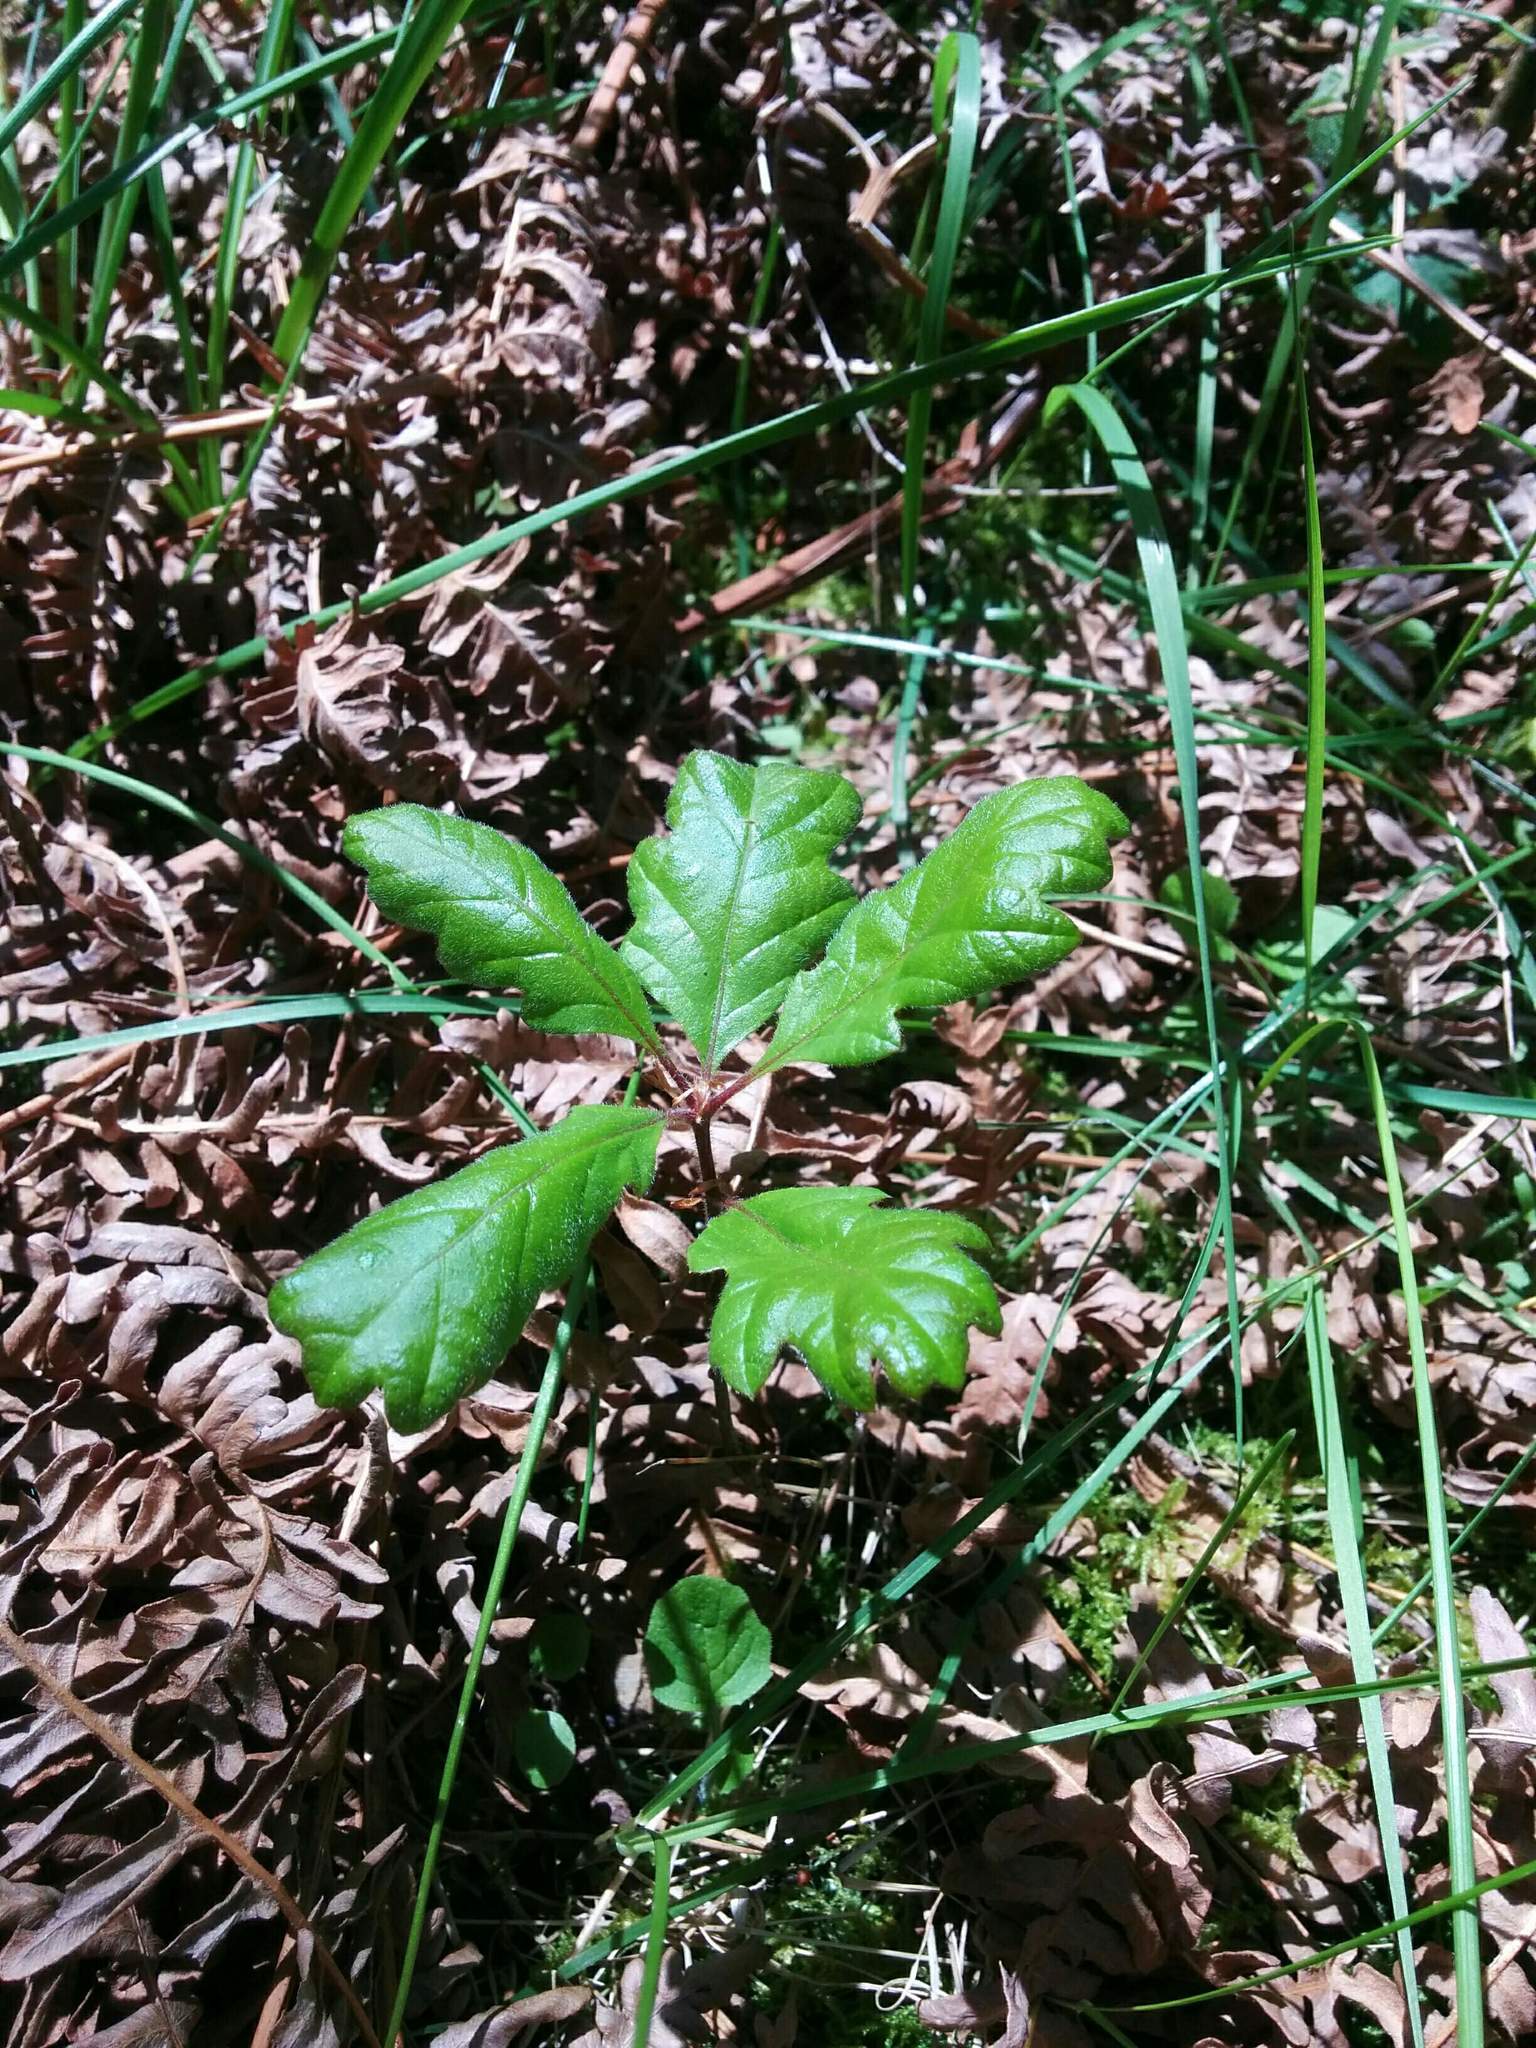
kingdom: Plantae
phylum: Tracheophyta
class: Magnoliopsida
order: Fagales
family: Fagaceae
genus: Quercus
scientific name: Quercus garryana
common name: Garry oak
